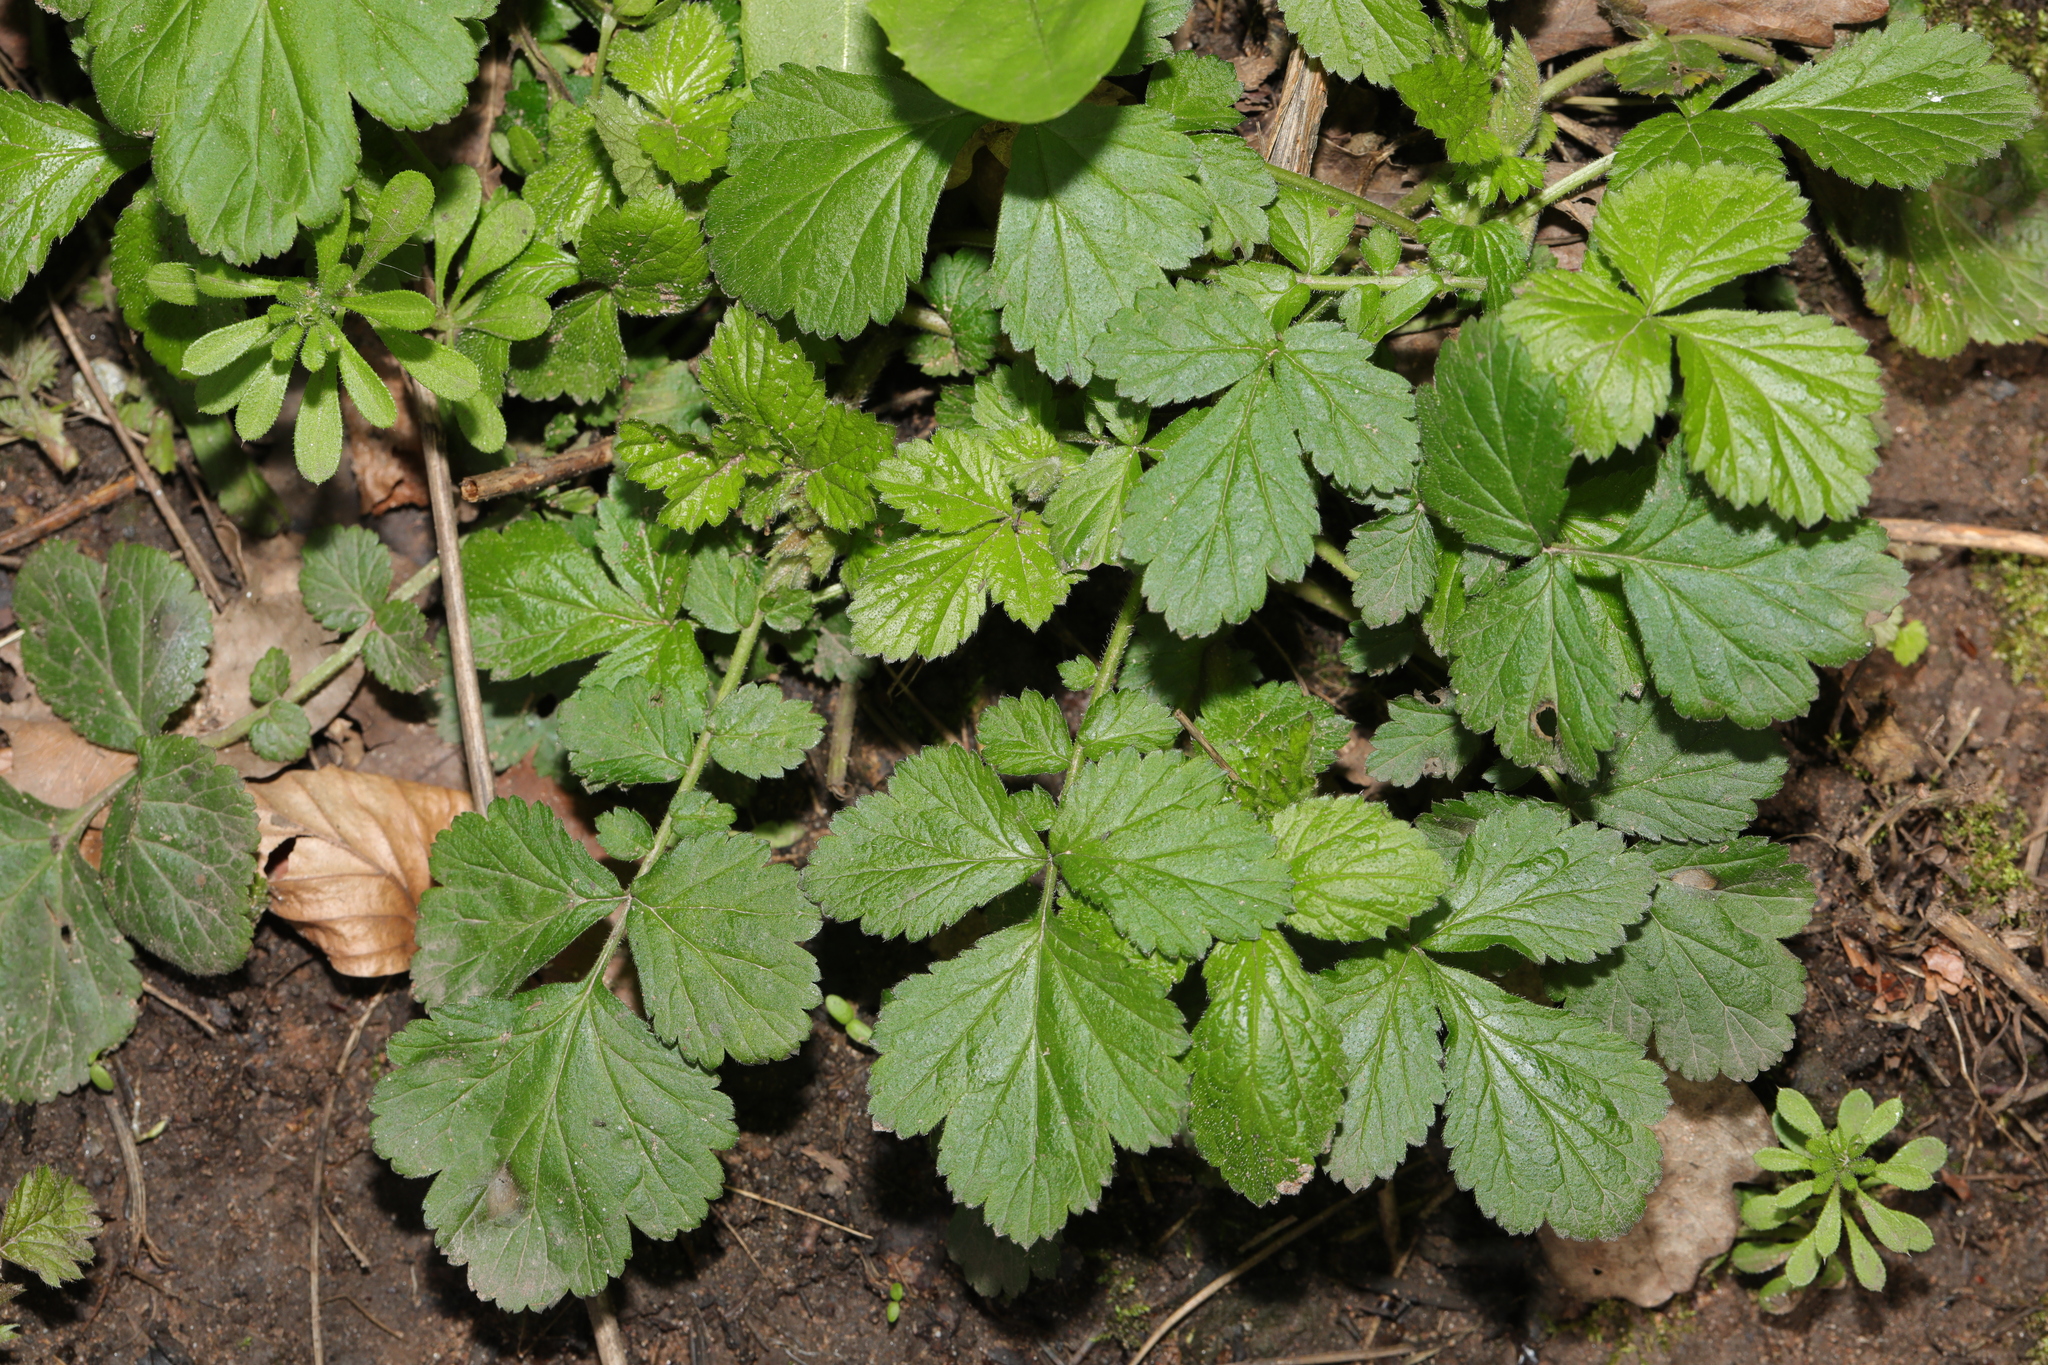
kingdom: Plantae
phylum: Tracheophyta
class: Magnoliopsida
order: Rosales
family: Rosaceae
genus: Geum
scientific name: Geum urbanum
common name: Wood avens
